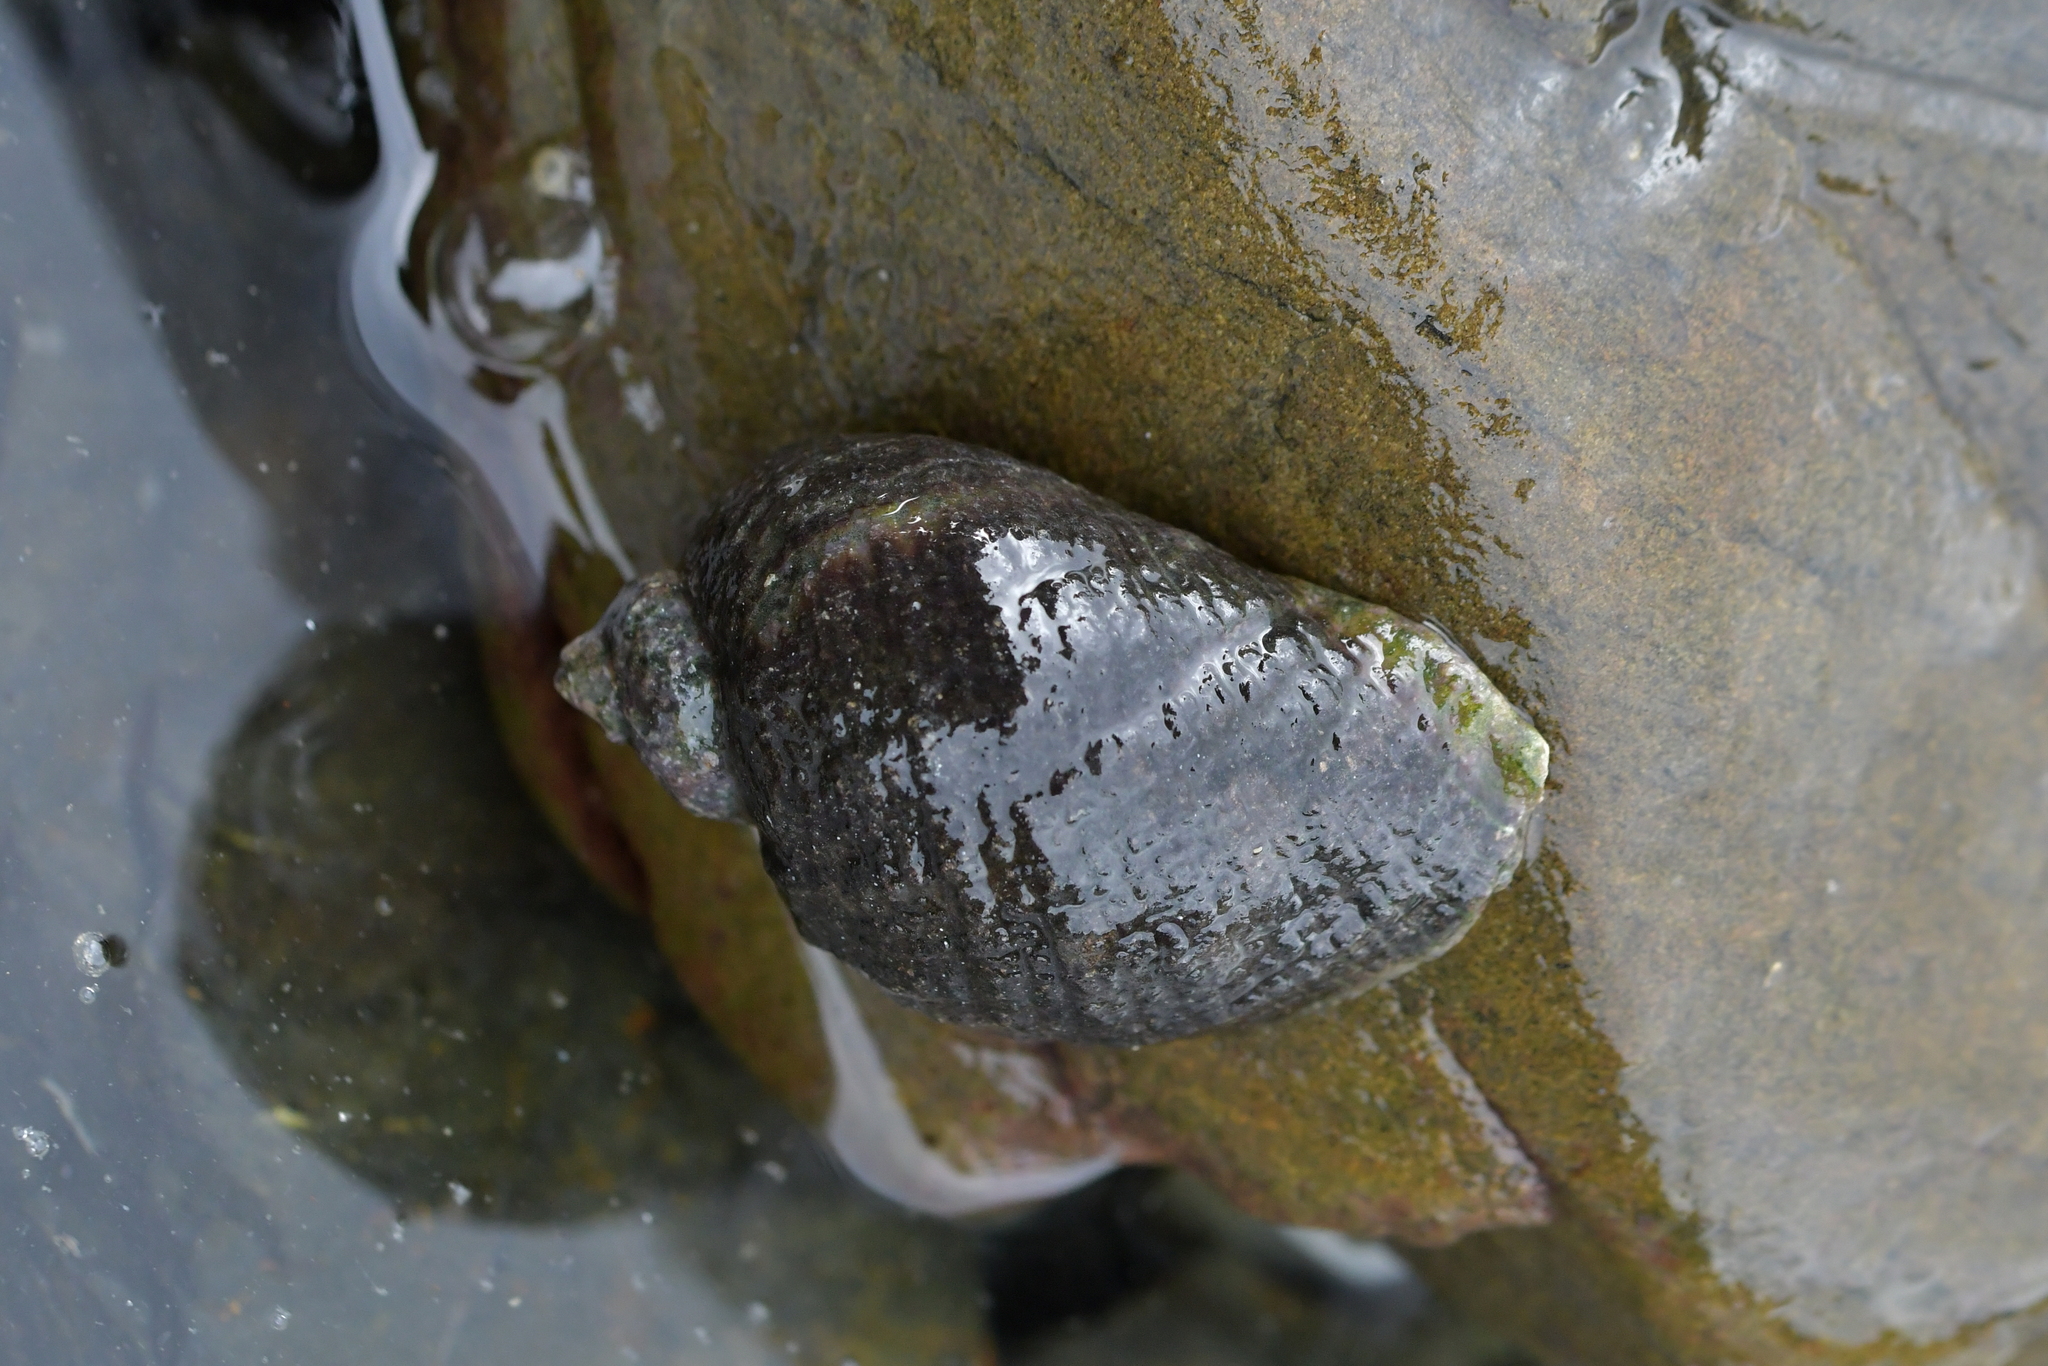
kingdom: Animalia
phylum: Mollusca
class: Gastropoda
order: Neogastropoda
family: Muricidae
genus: Haustrum
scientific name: Haustrum haustorium
